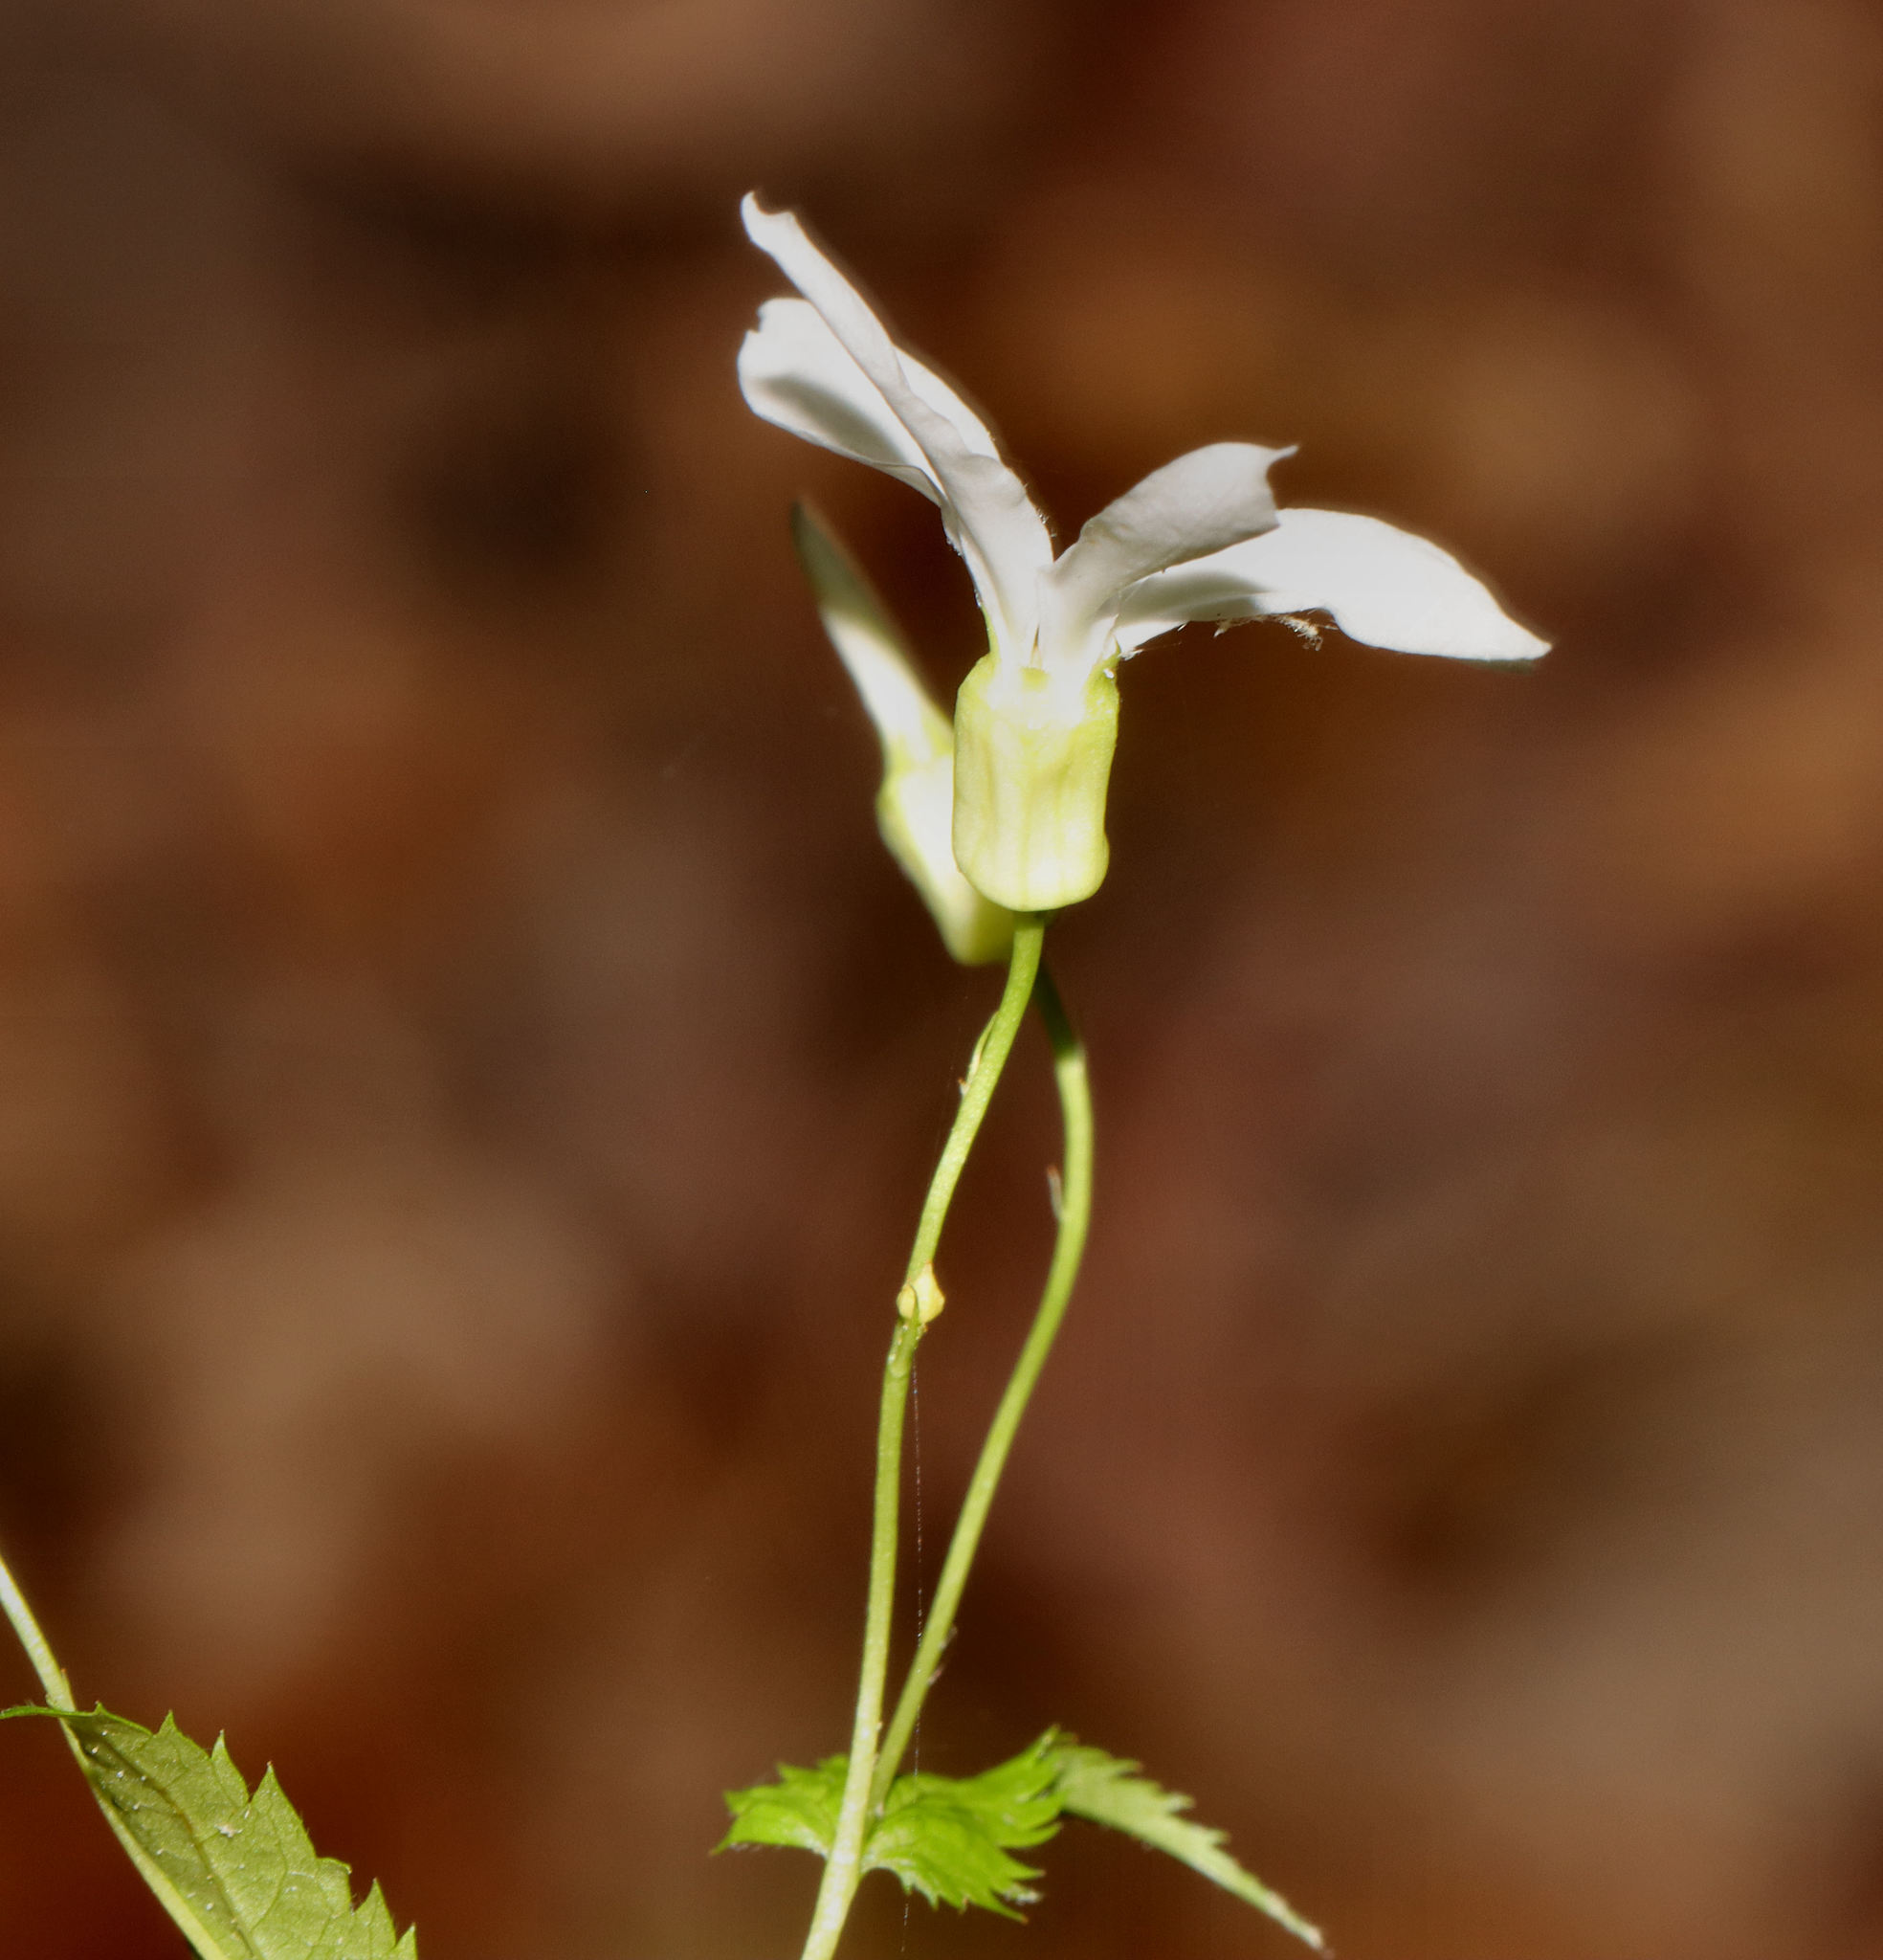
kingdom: Plantae
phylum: Tracheophyta
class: Magnoliopsida
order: Rosales
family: Rosaceae
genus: Gillenia
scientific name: Gillenia stipulata
